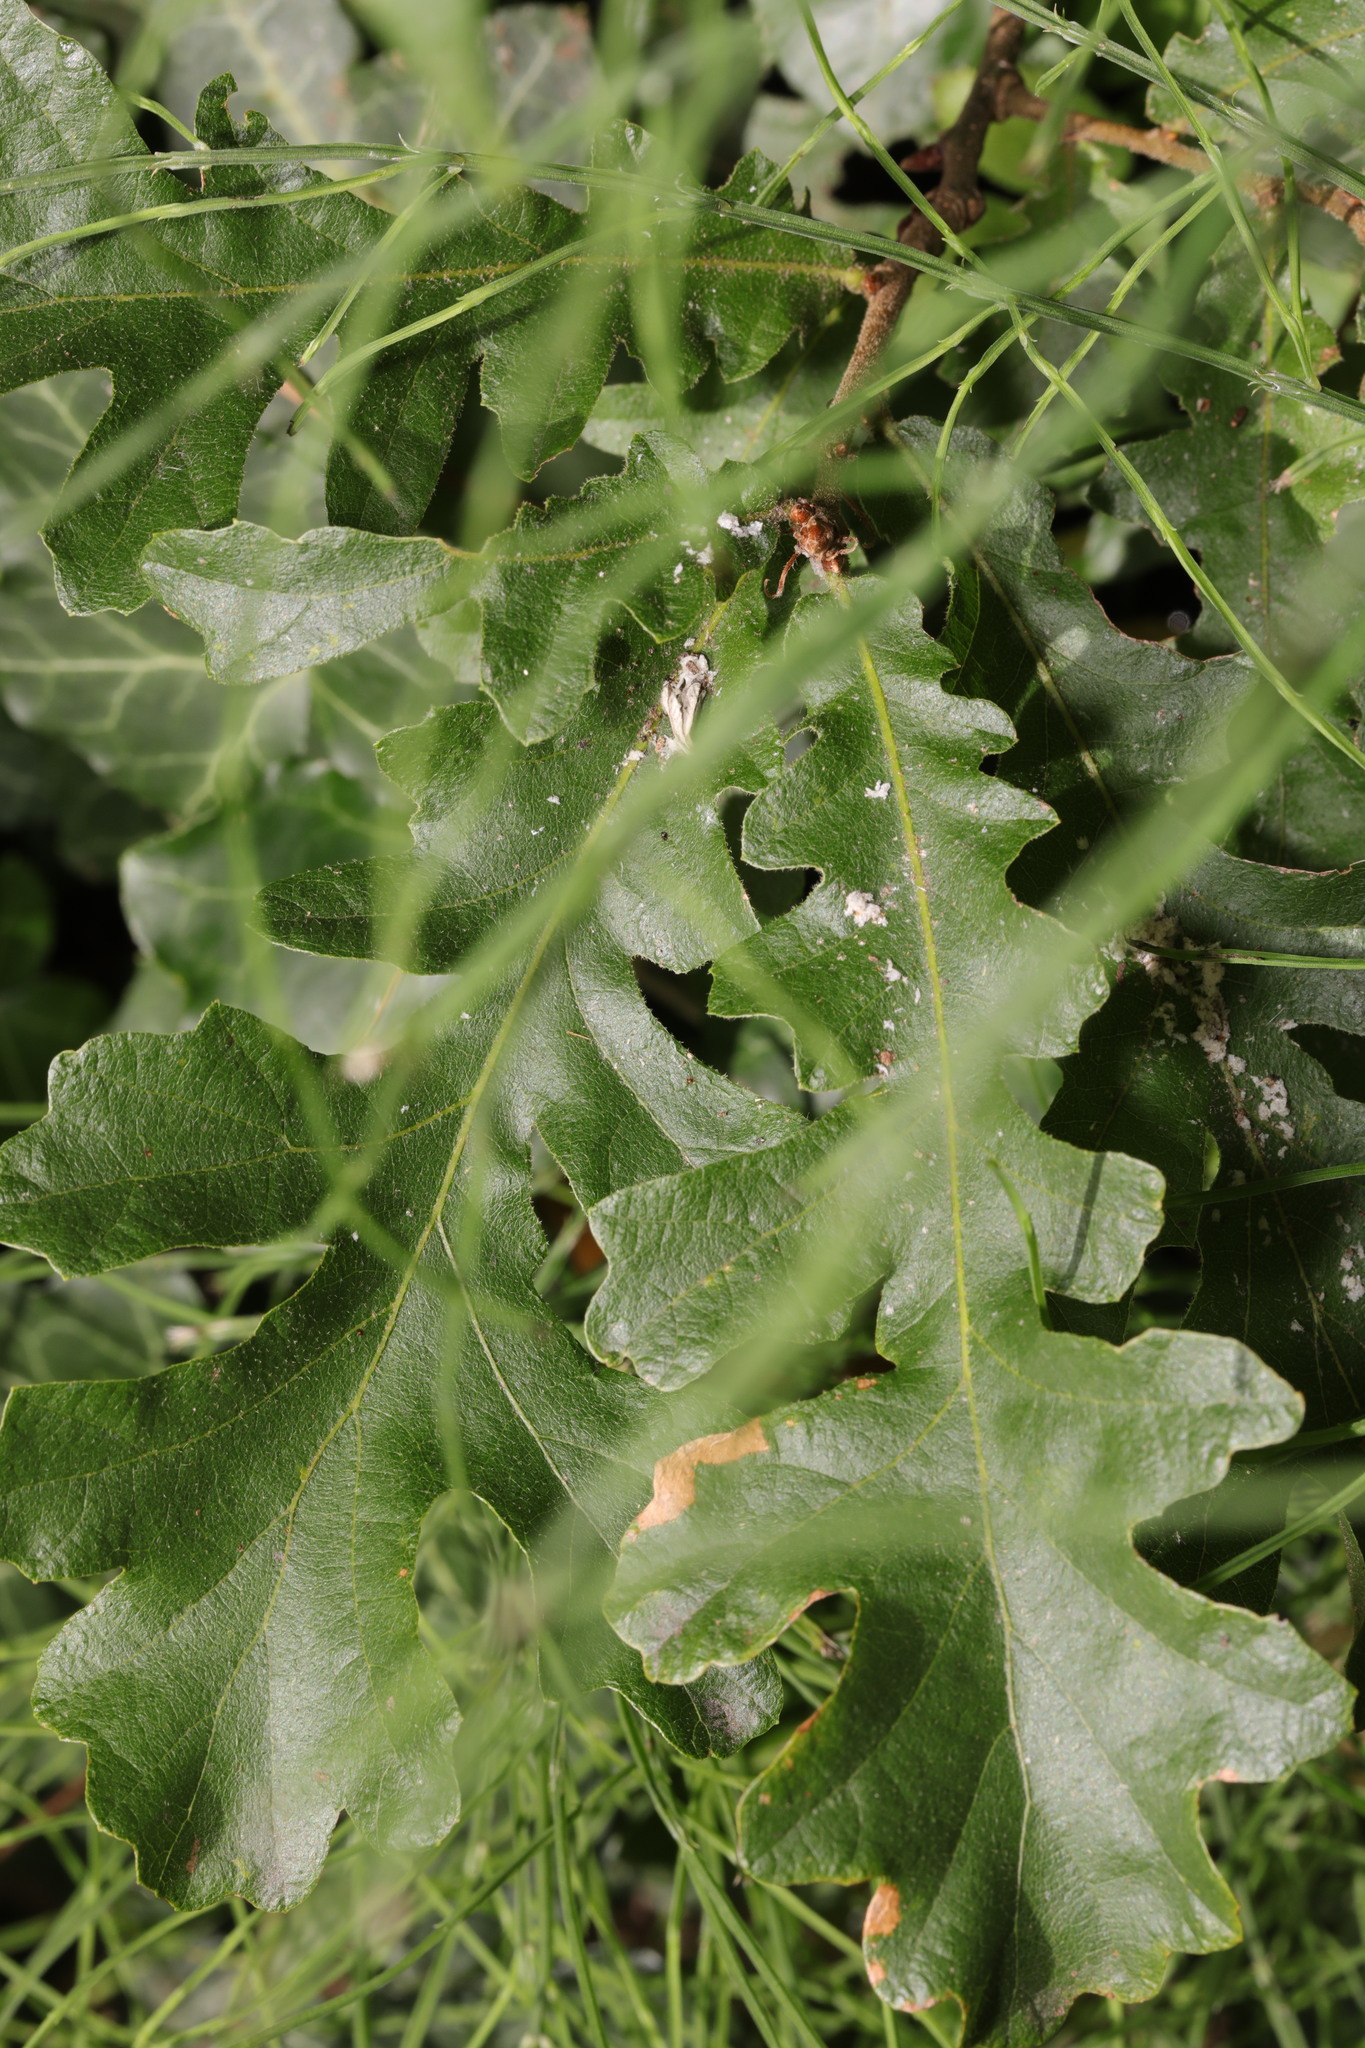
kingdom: Plantae
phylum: Tracheophyta
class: Magnoliopsida
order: Fagales
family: Fagaceae
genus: Quercus
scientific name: Quercus cerris
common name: Turkey oak
